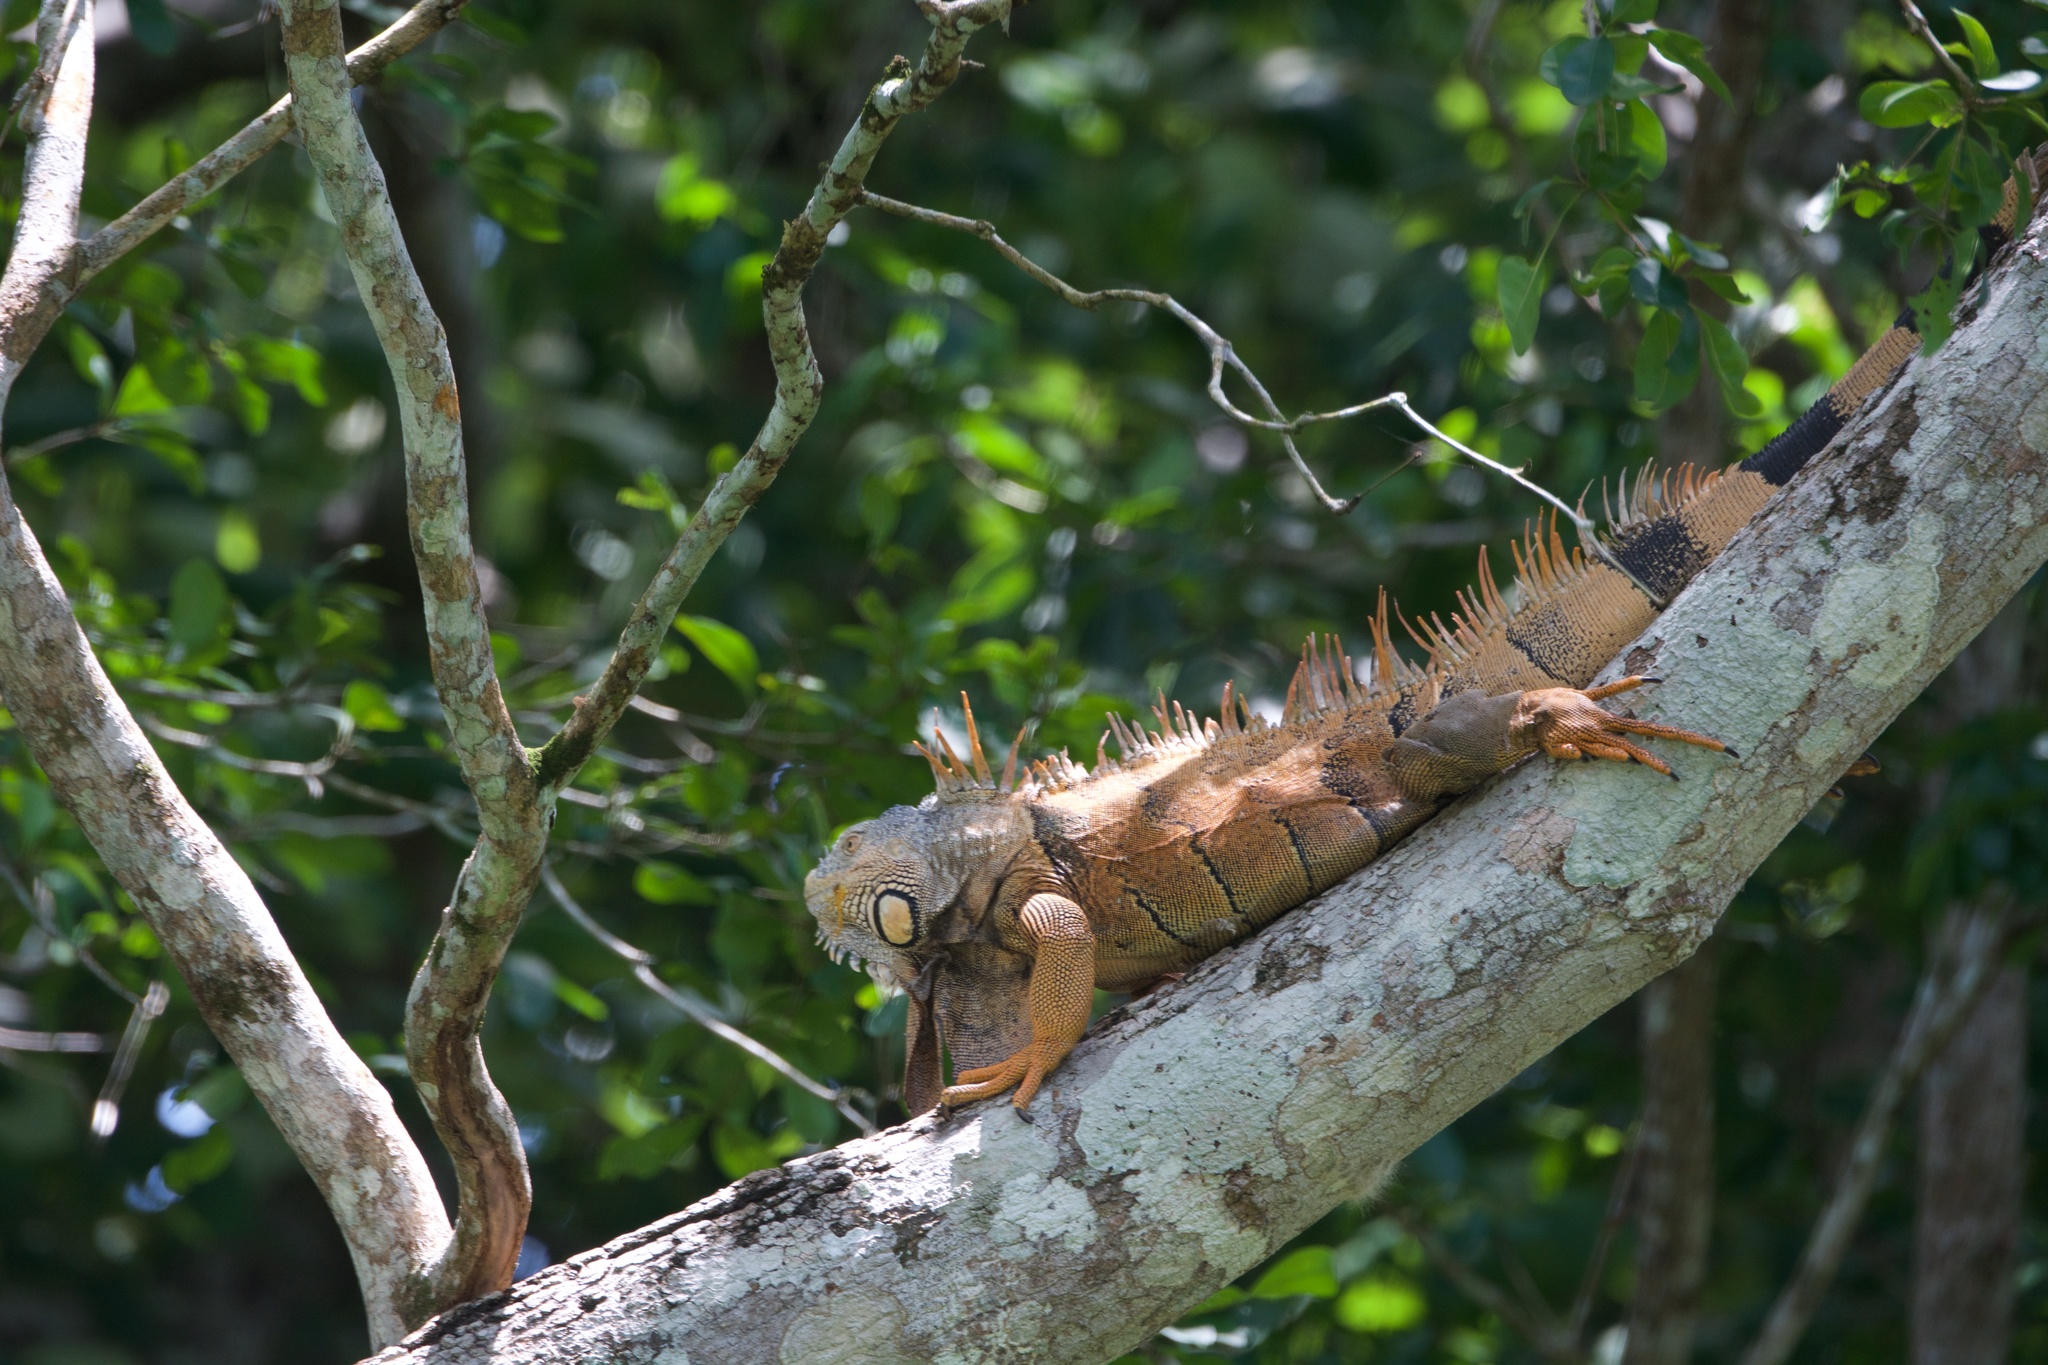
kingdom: Animalia
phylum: Chordata
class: Squamata
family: Iguanidae
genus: Iguana
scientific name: Iguana iguana
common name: Green iguana
